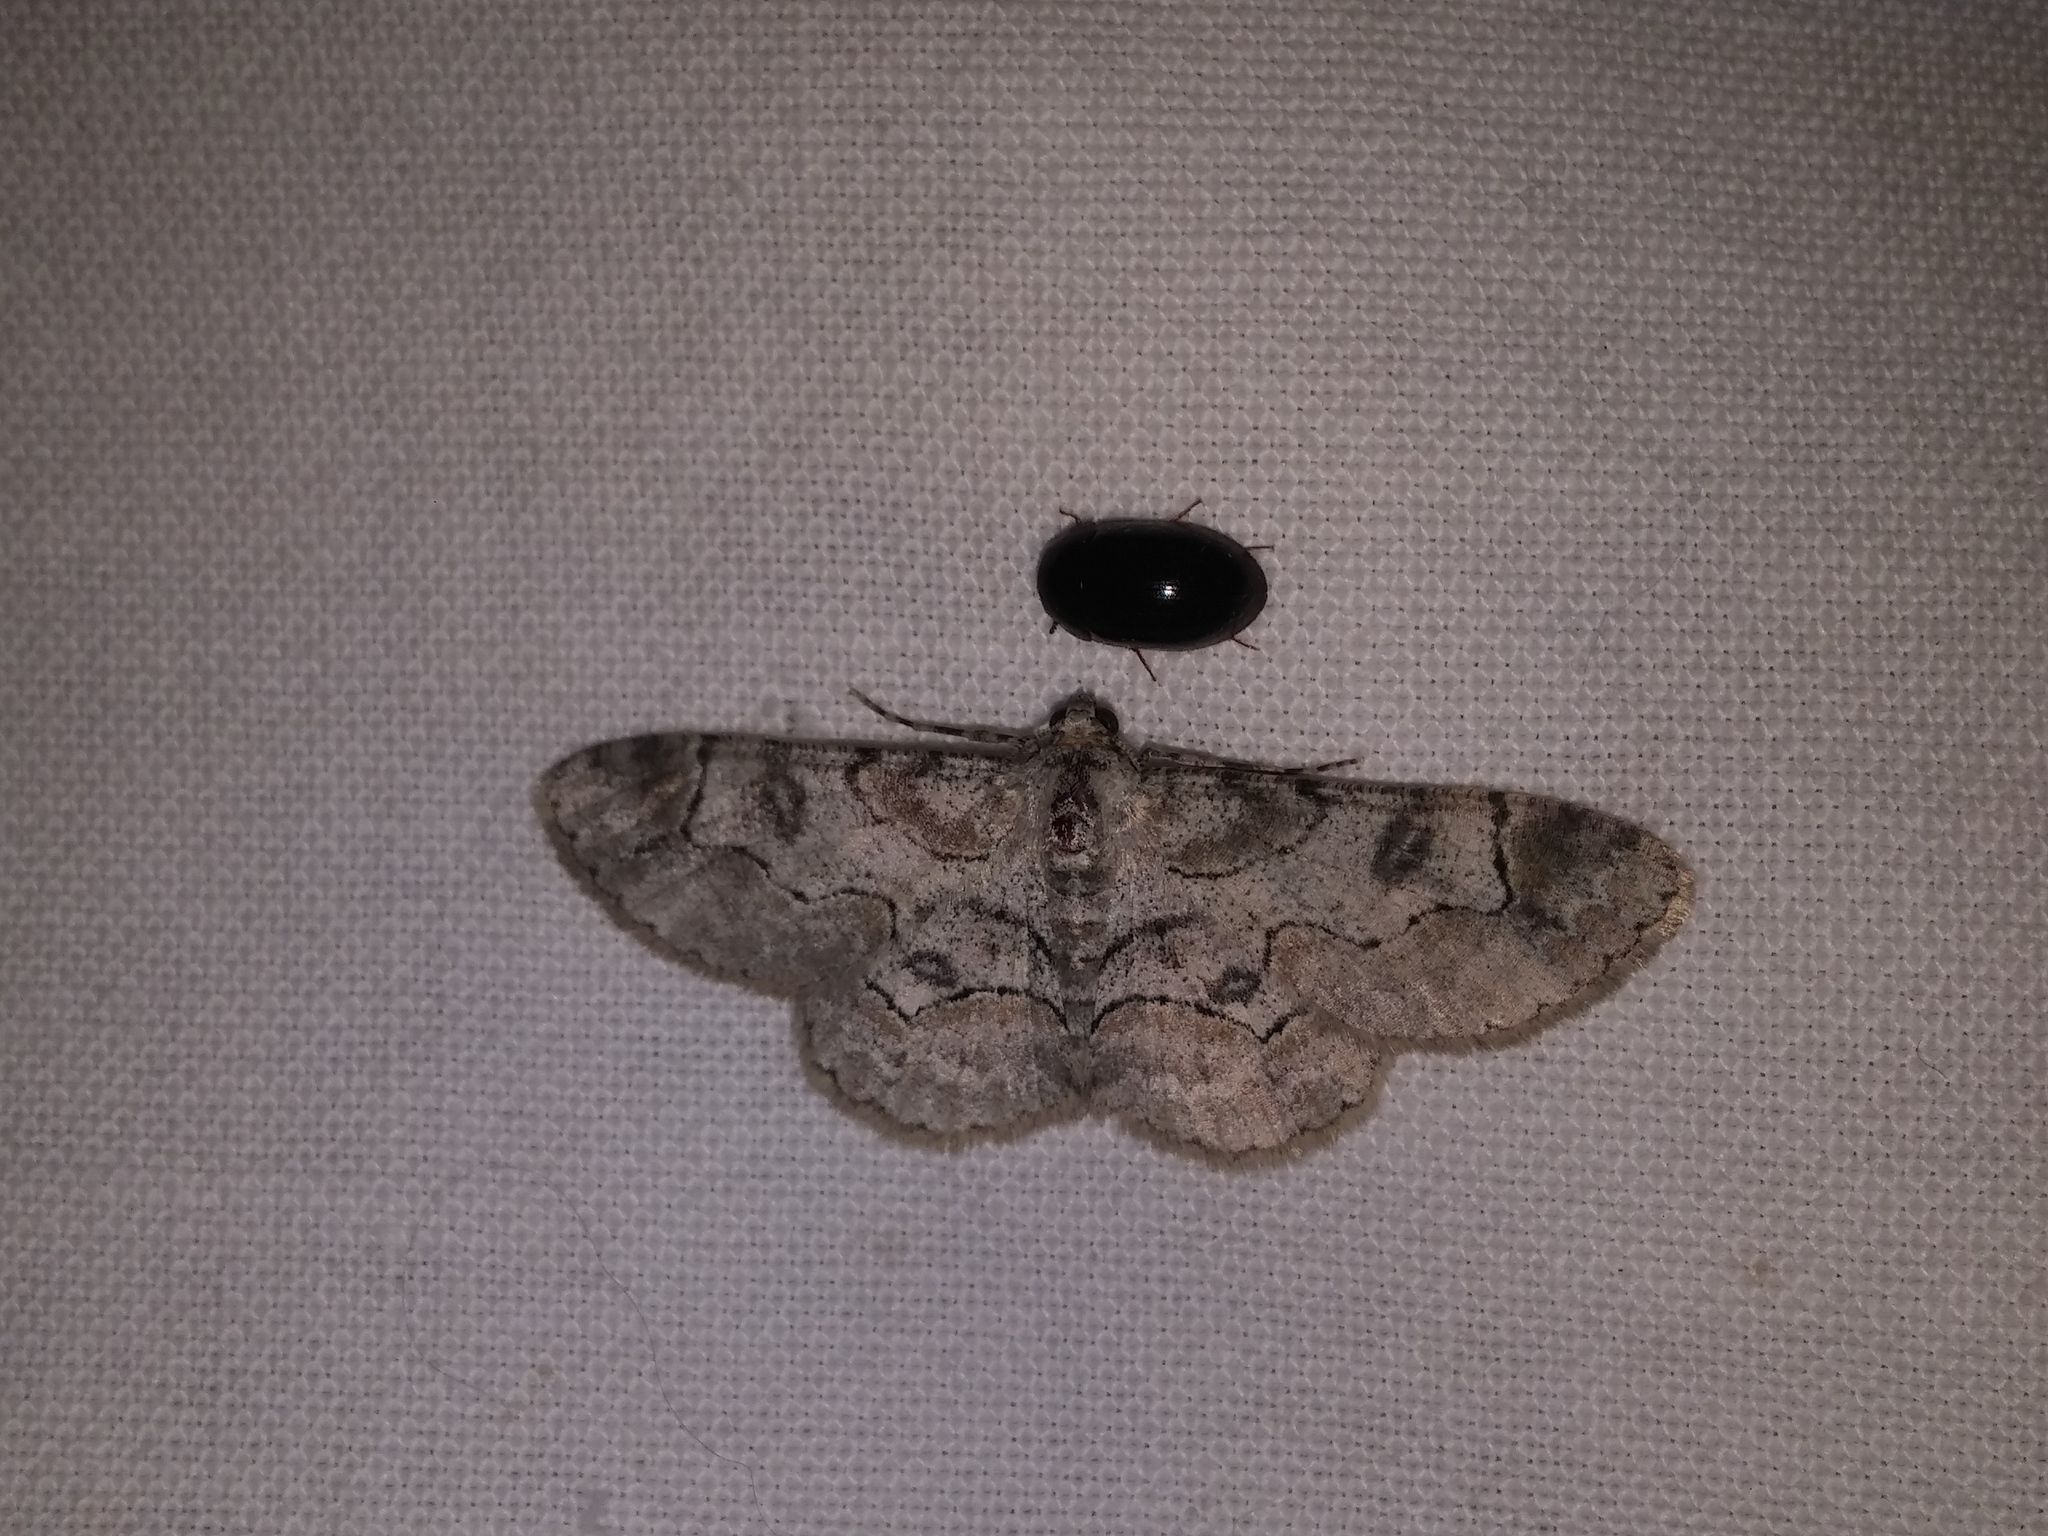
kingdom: Animalia
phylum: Arthropoda
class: Insecta
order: Lepidoptera
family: Geometridae
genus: Iridopsis
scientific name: Iridopsis larvaria
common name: Bent-line gray
